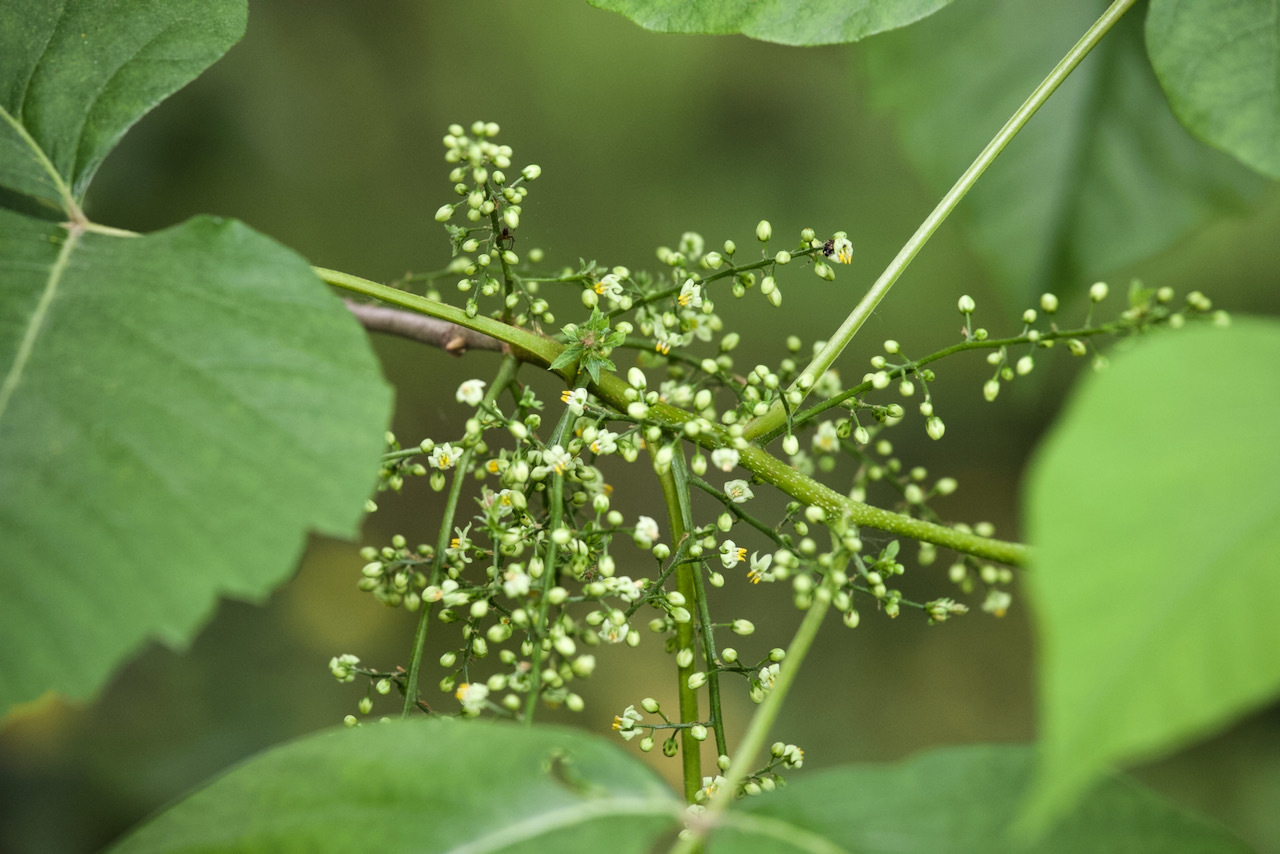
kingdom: Plantae
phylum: Tracheophyta
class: Magnoliopsida
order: Sapindales
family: Anacardiaceae
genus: Toxicodendron
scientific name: Toxicodendron radicans
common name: Poison ivy
